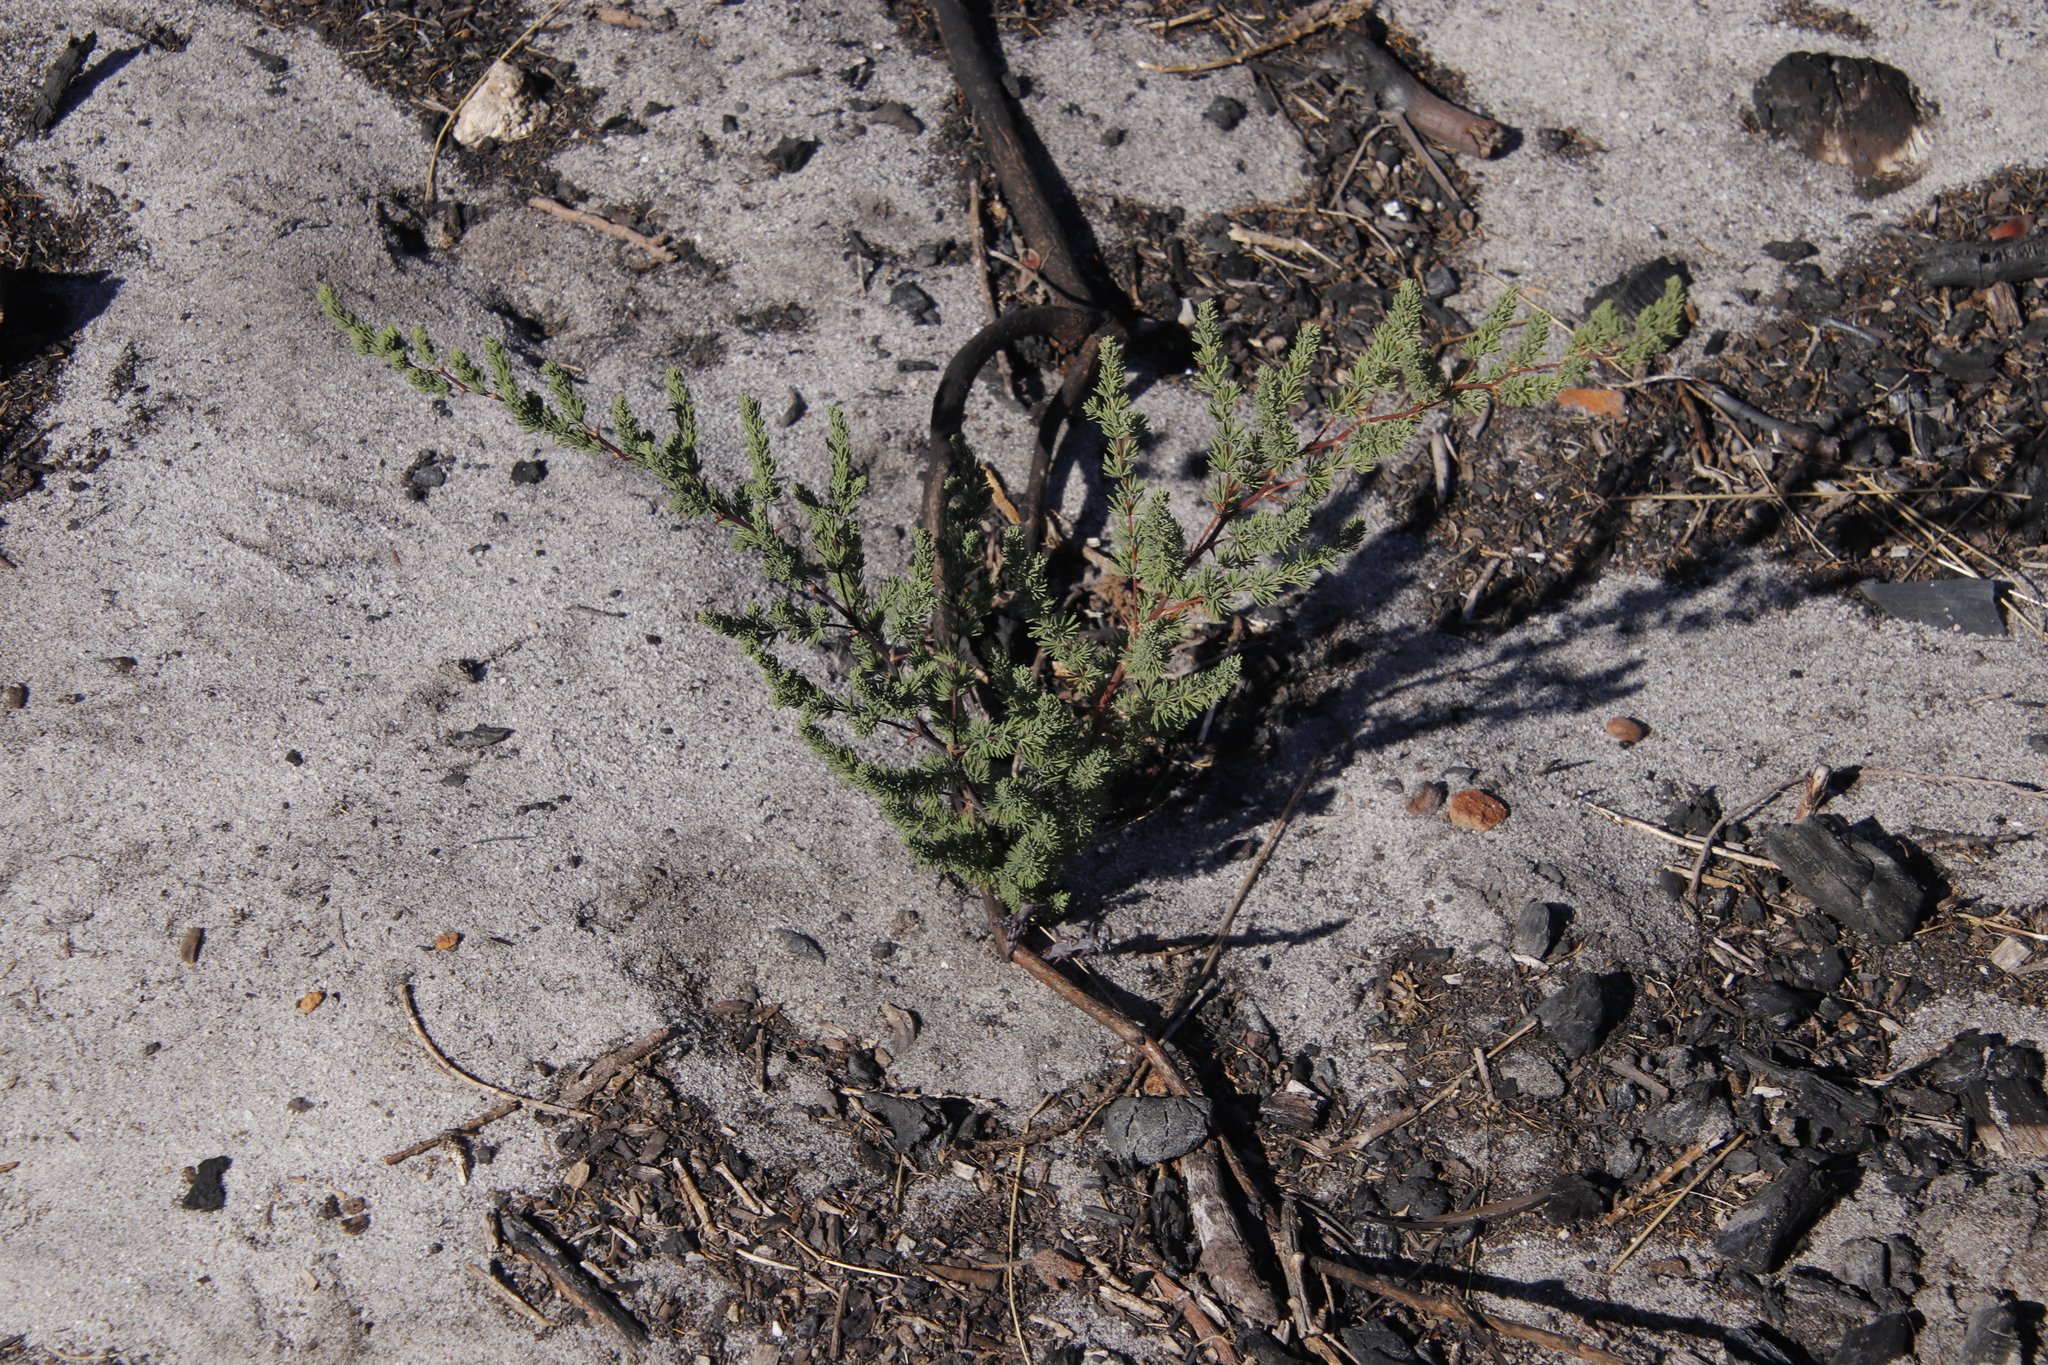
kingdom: Plantae
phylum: Tracheophyta
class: Liliopsida
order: Asparagales
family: Asparagaceae
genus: Asparagus
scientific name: Asparagus rubicundus
